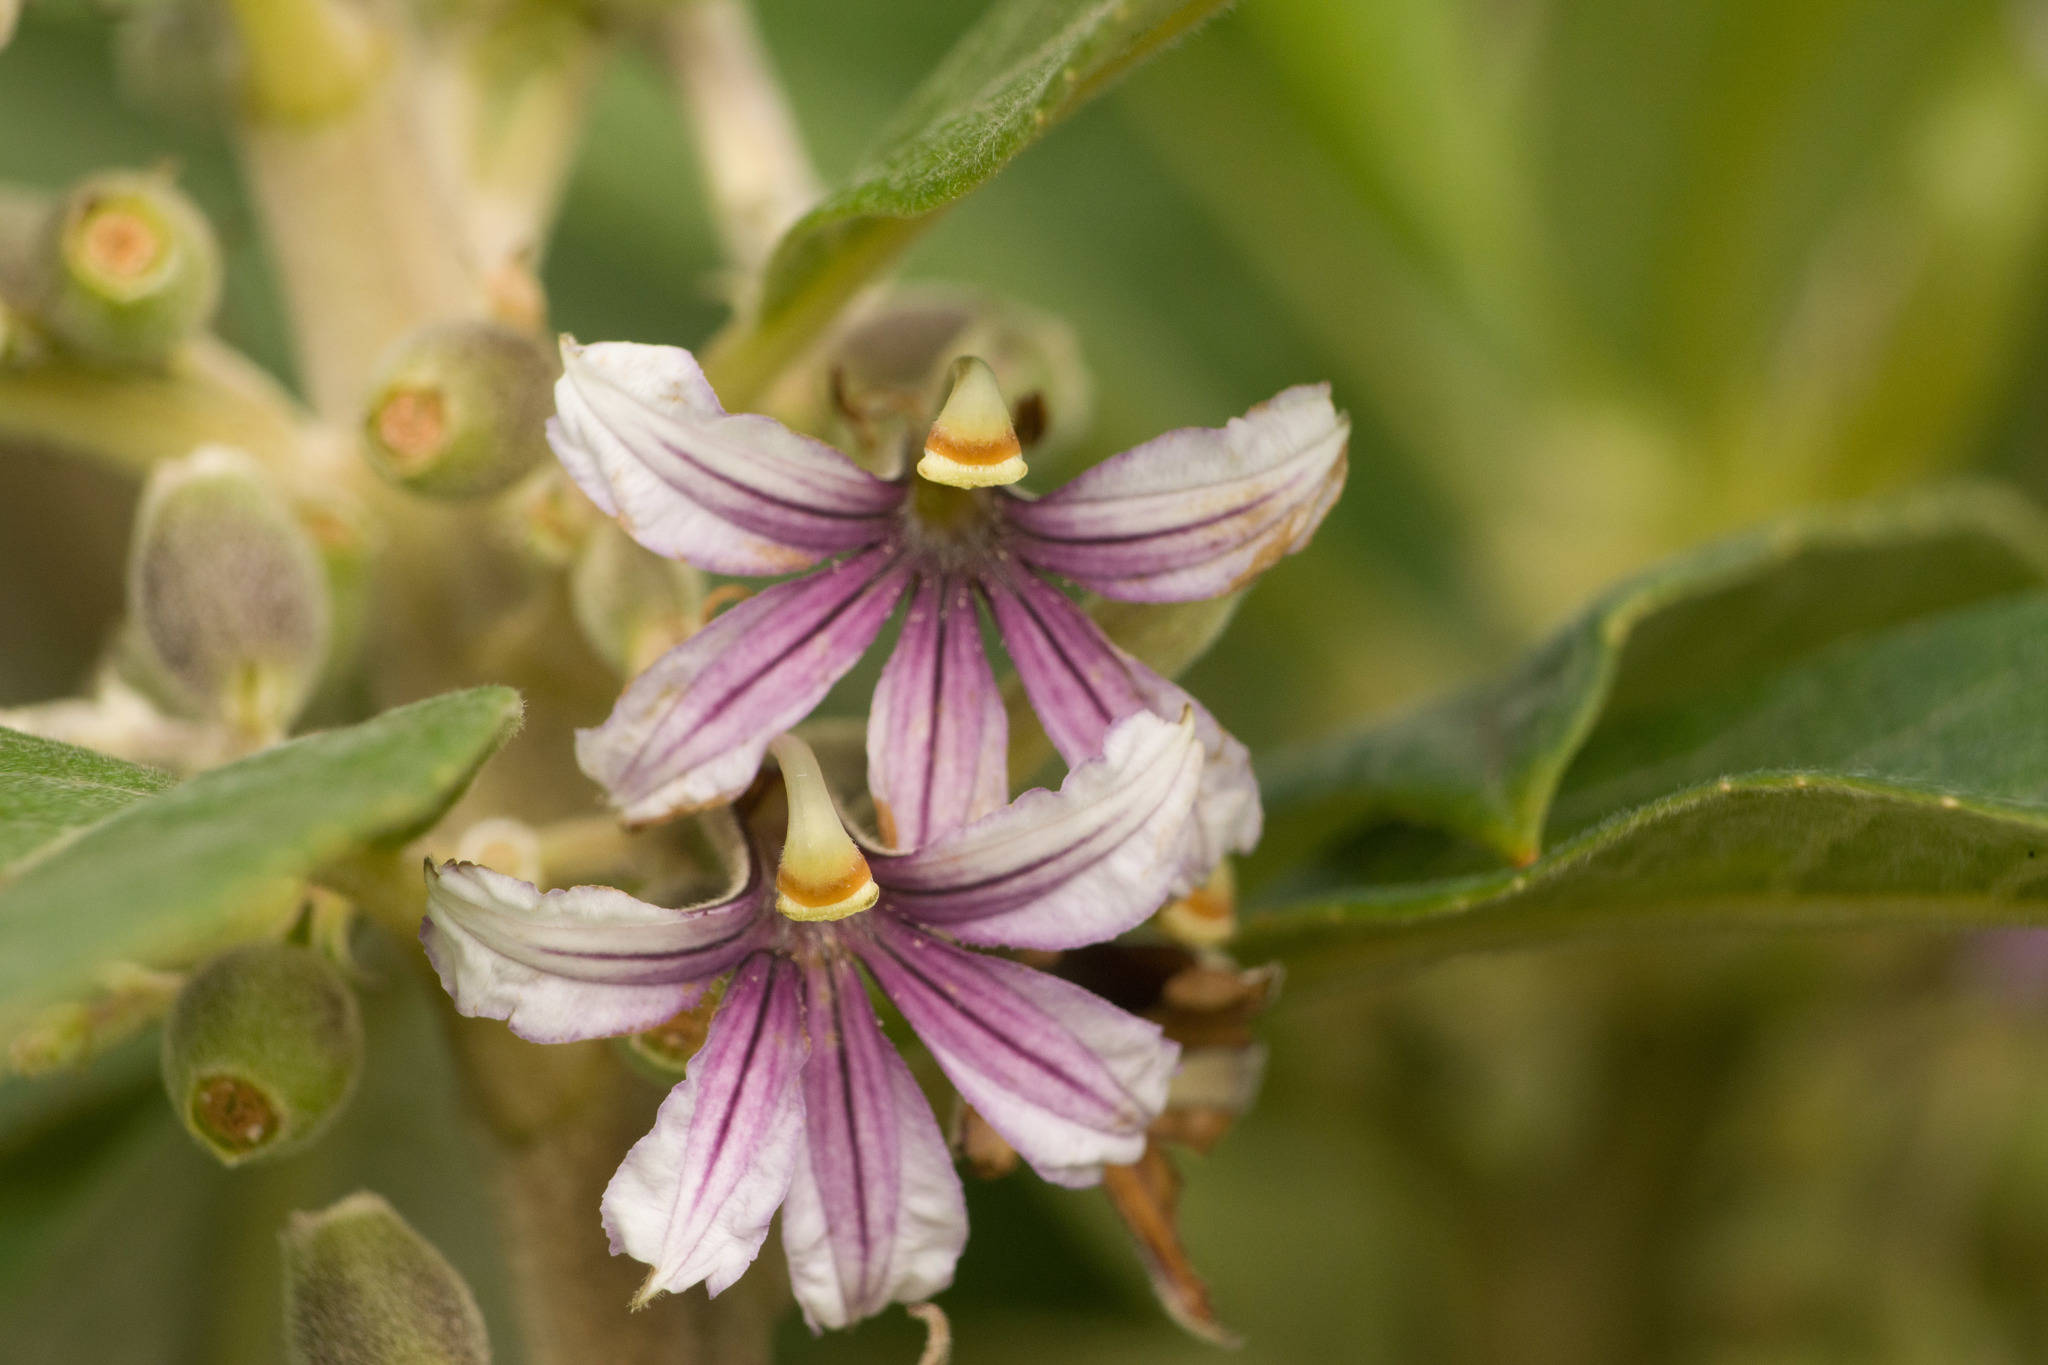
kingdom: Plantae
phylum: Tracheophyta
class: Magnoliopsida
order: Asterales
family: Goodeniaceae
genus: Scaevola
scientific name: Scaevola mollis
